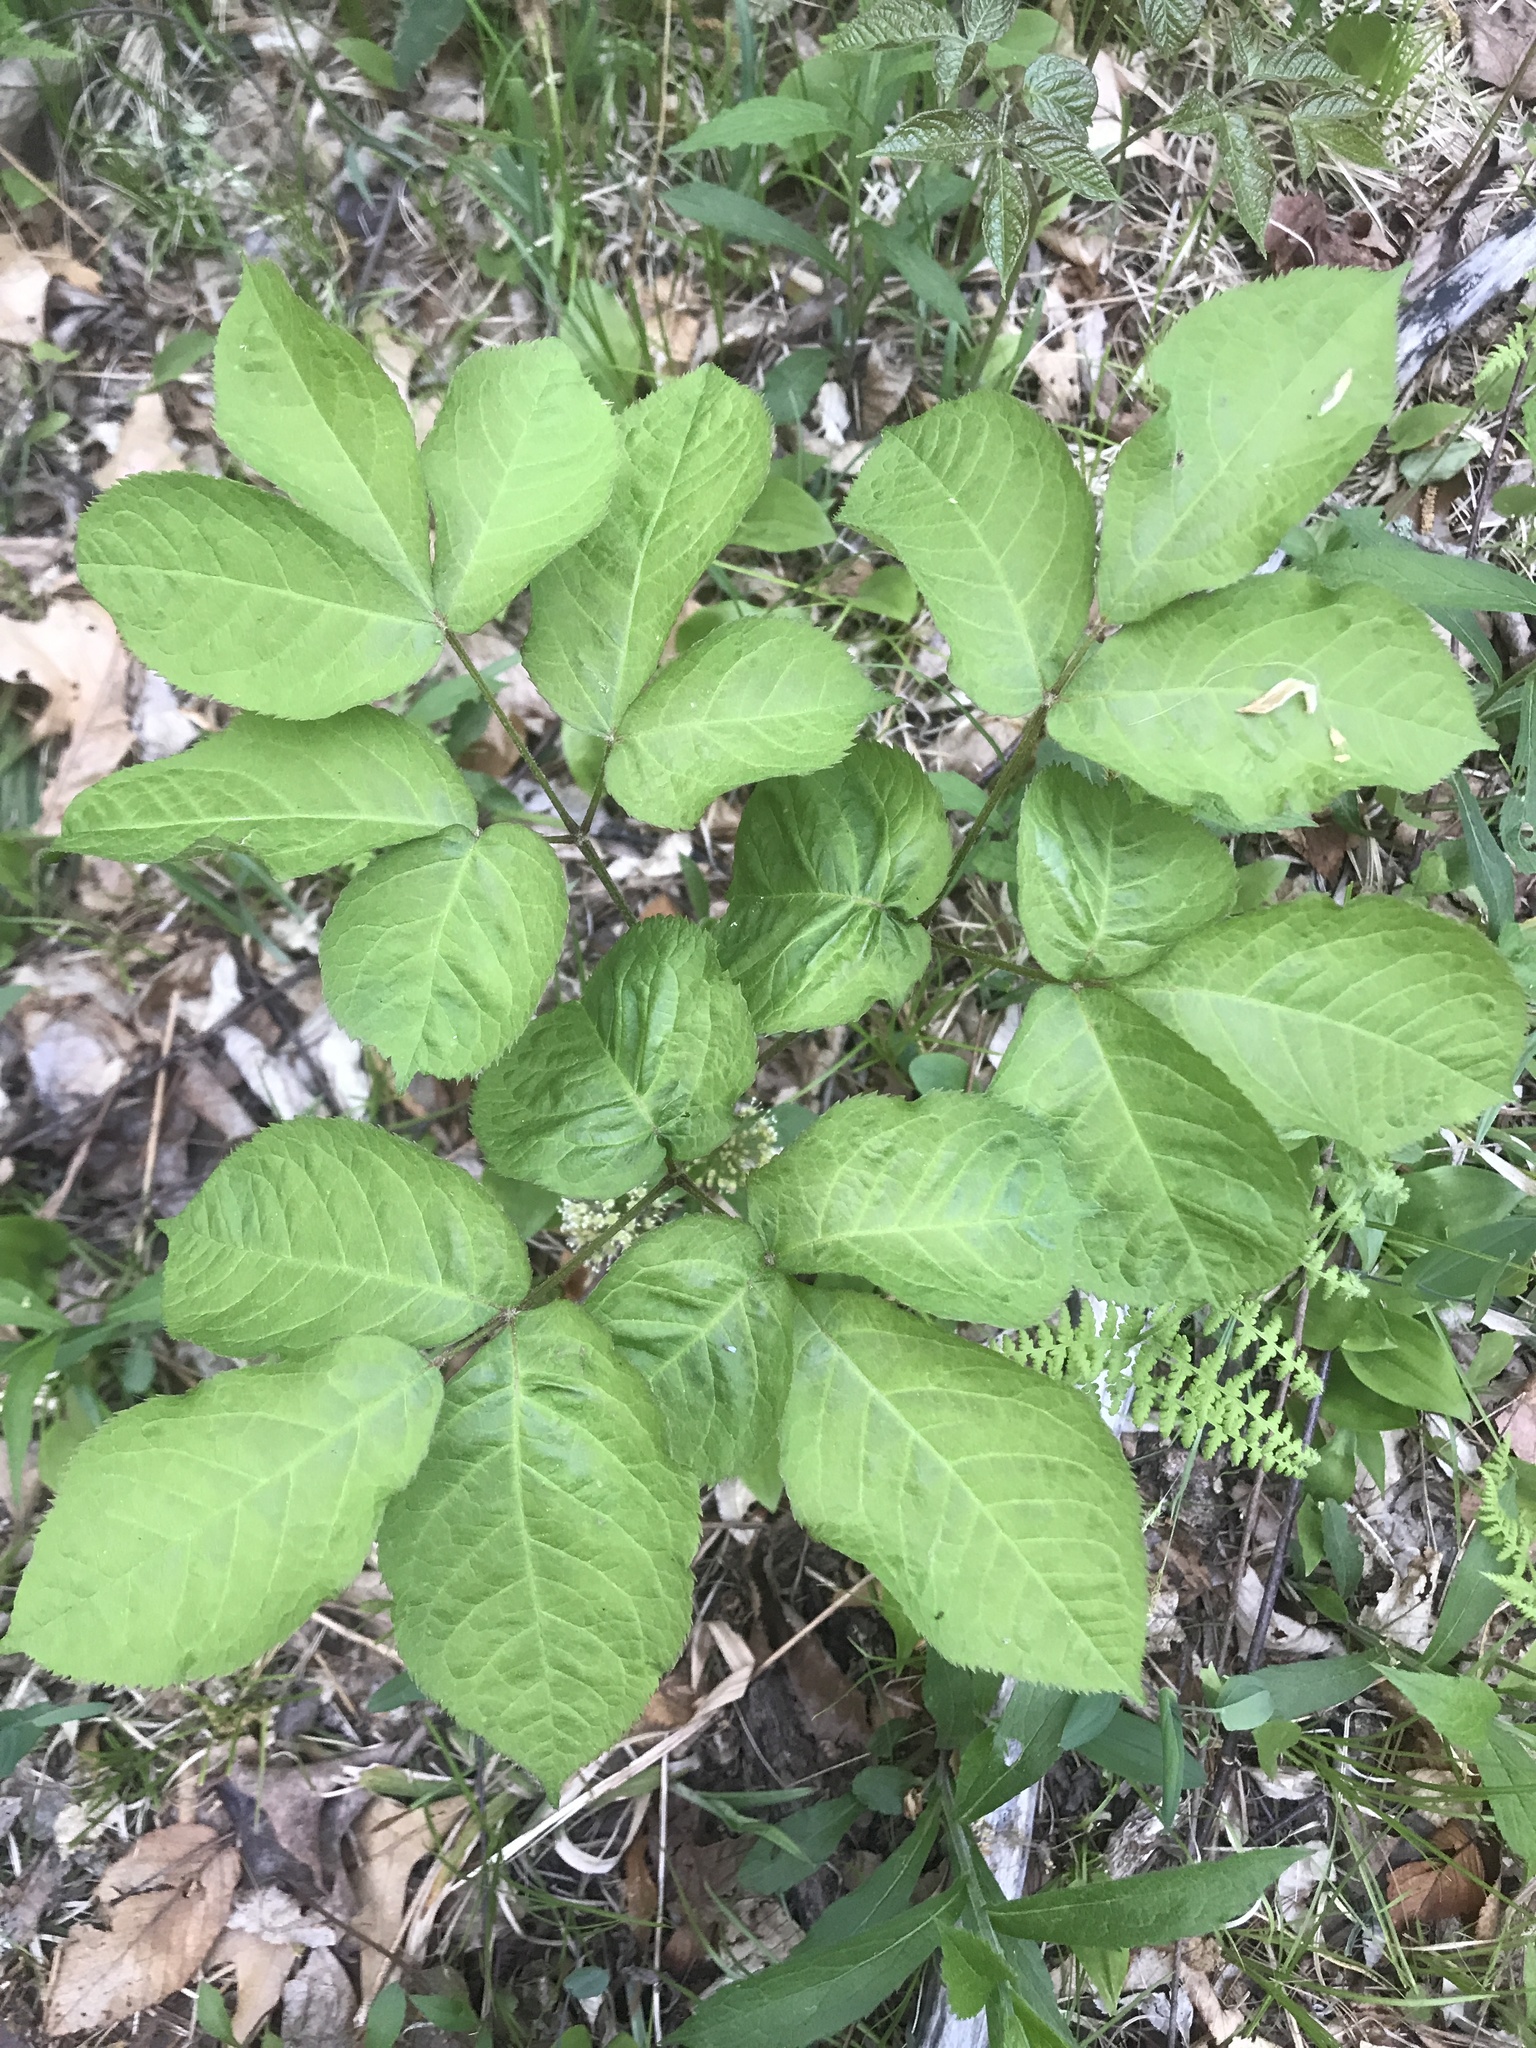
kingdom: Plantae
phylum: Tracheophyta
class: Magnoliopsida
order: Apiales
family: Araliaceae
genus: Aralia
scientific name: Aralia nudicaulis
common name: Wild sarsaparilla
